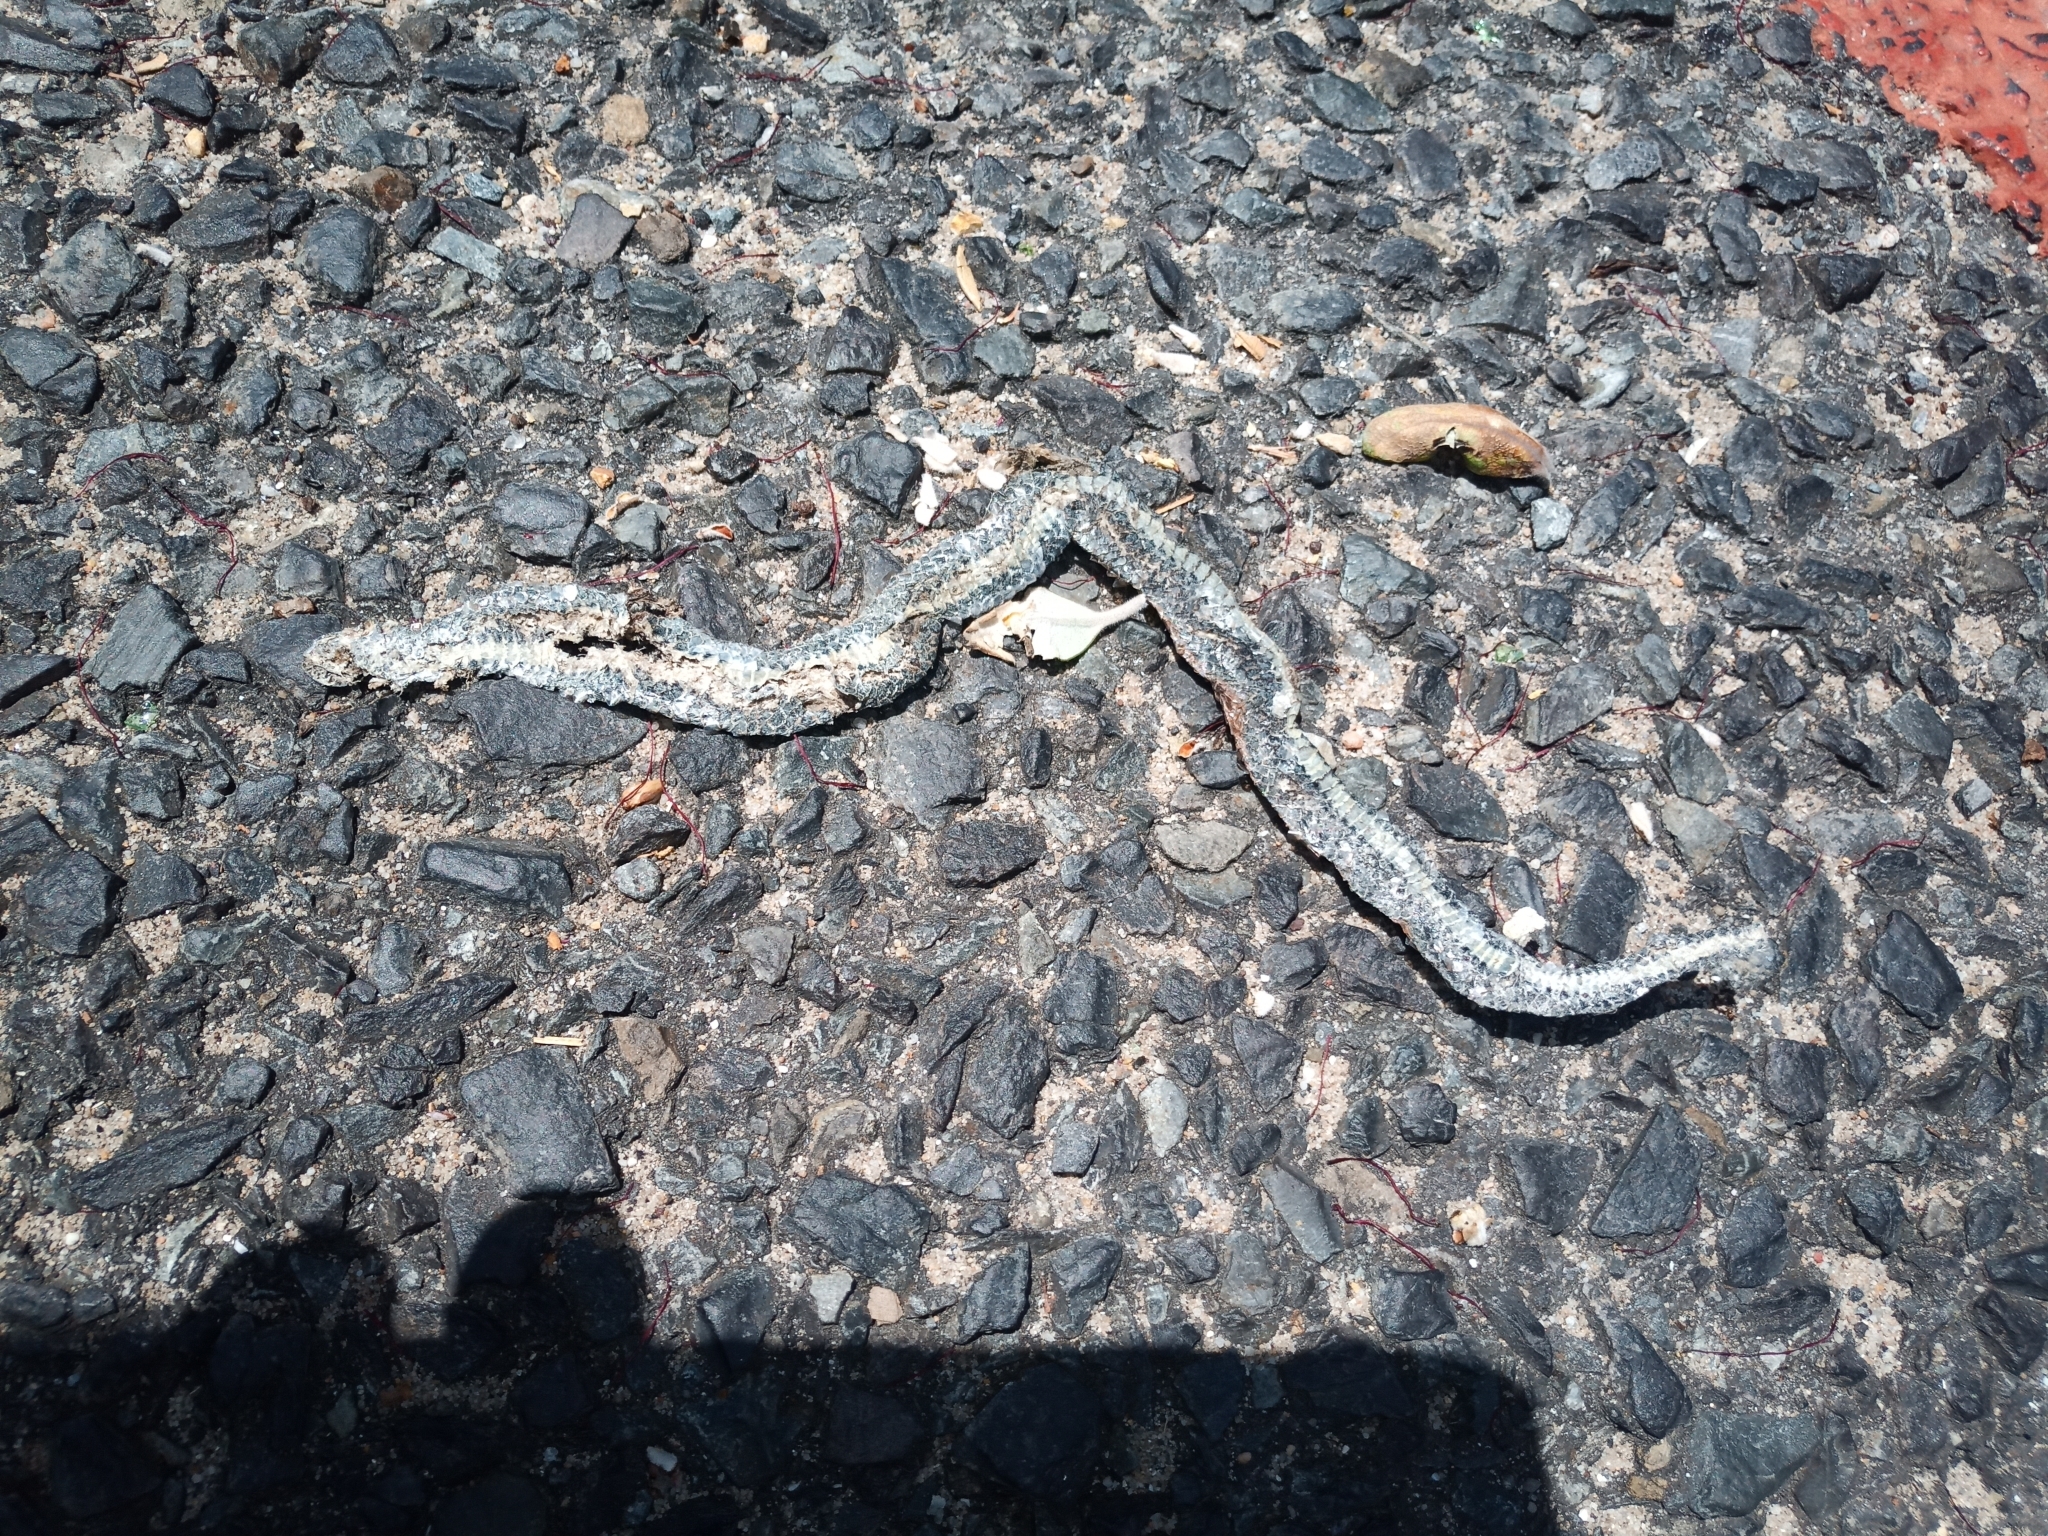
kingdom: Animalia
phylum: Chordata
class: Squamata
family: Pseudoxyrhophiidae
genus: Duberria
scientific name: Duberria lutrix
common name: Common slug eater
